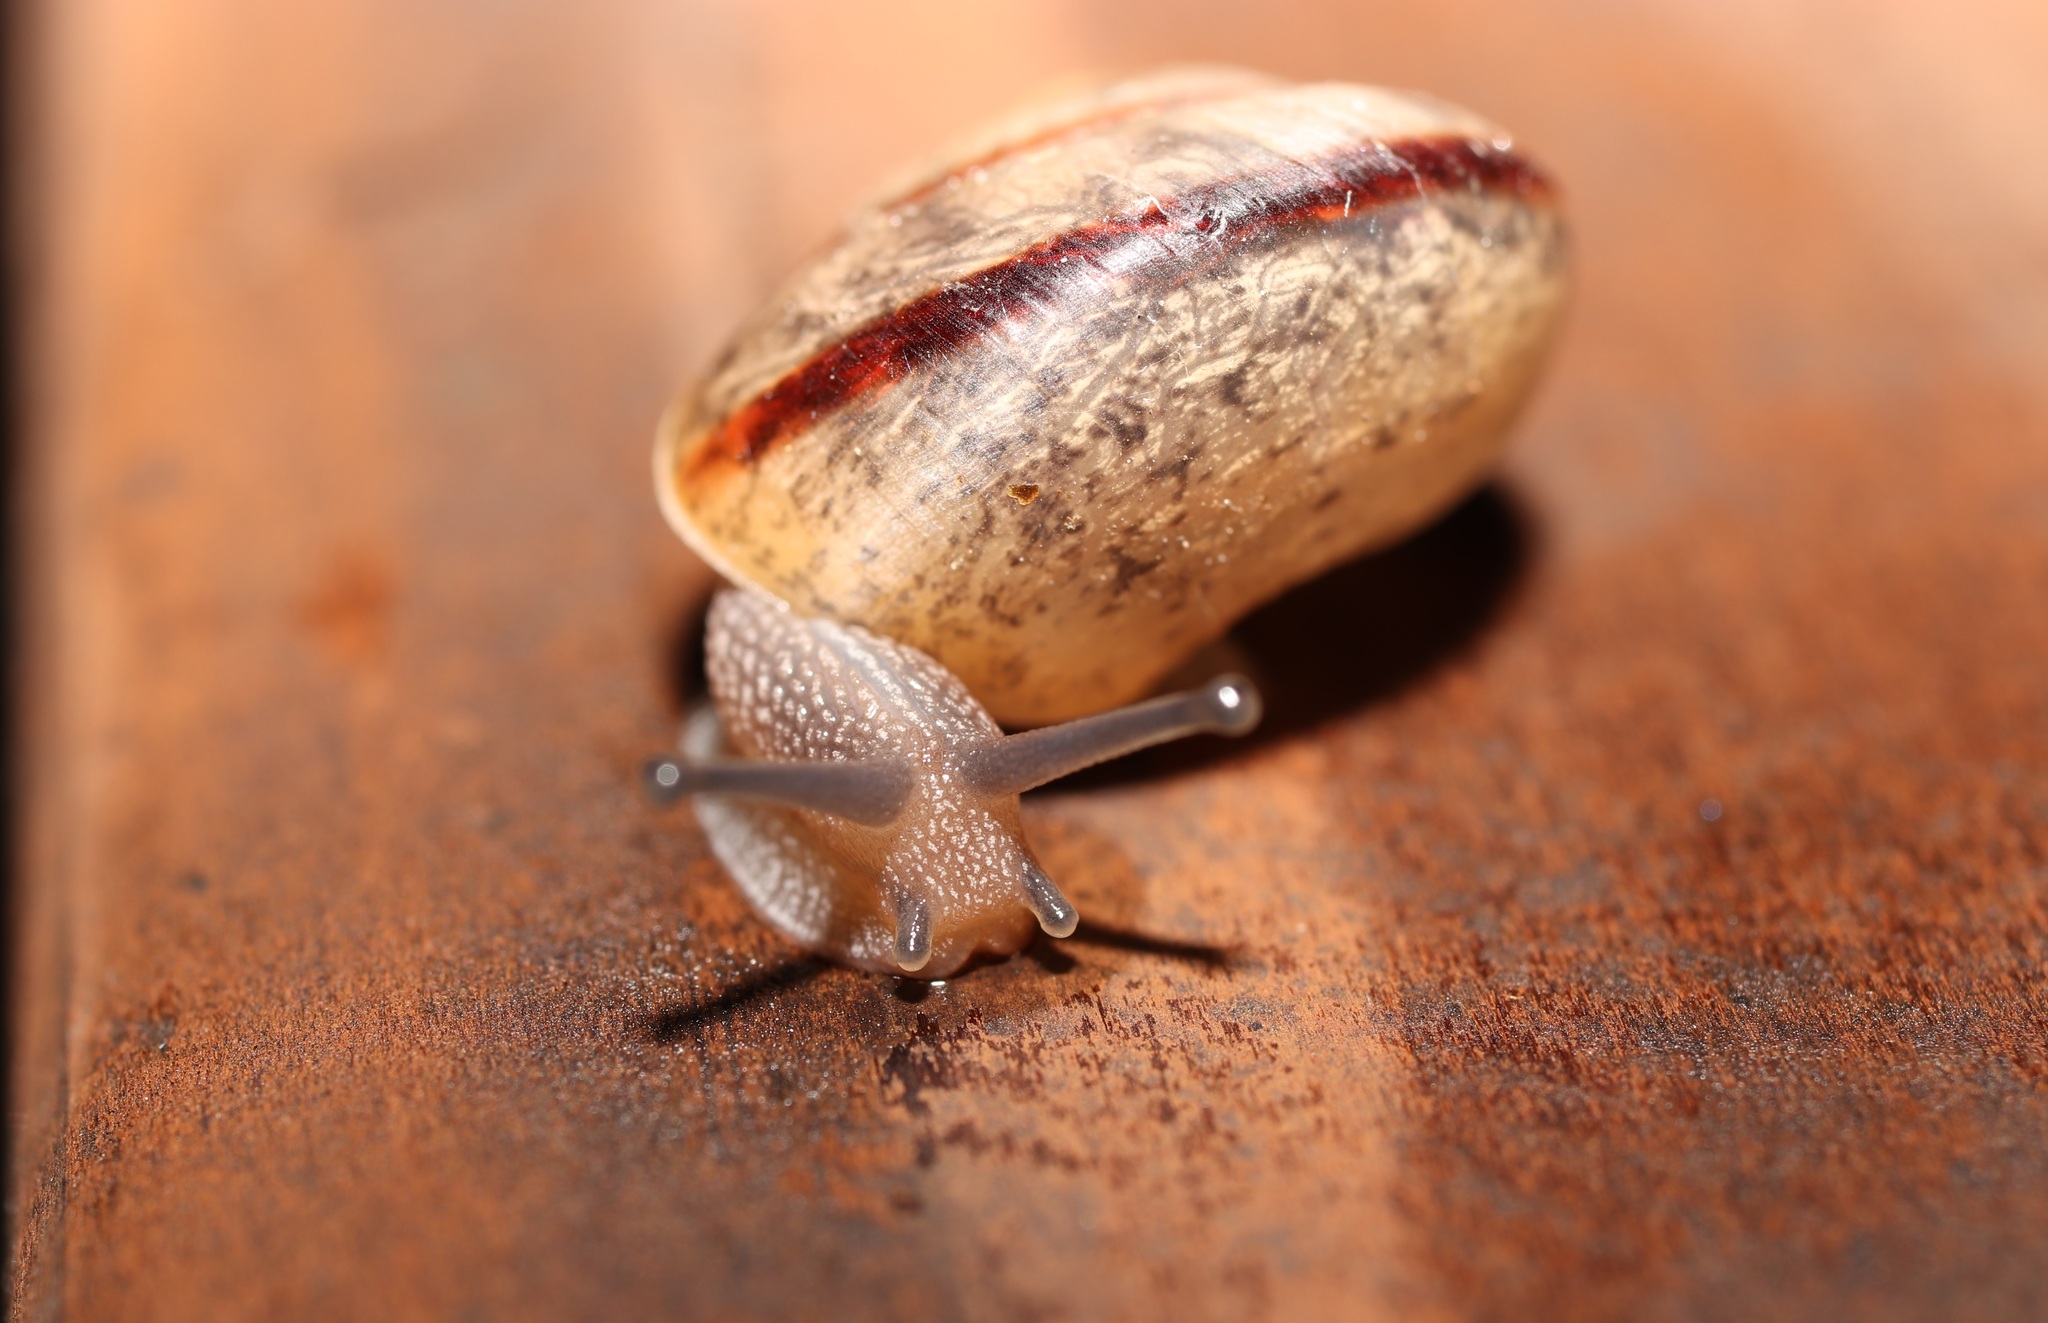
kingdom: Animalia
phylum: Mollusca
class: Gastropoda
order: Stylommatophora
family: Camaenidae
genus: Bradybaena
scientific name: Bradybaena similaris
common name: Asian trampsnail
